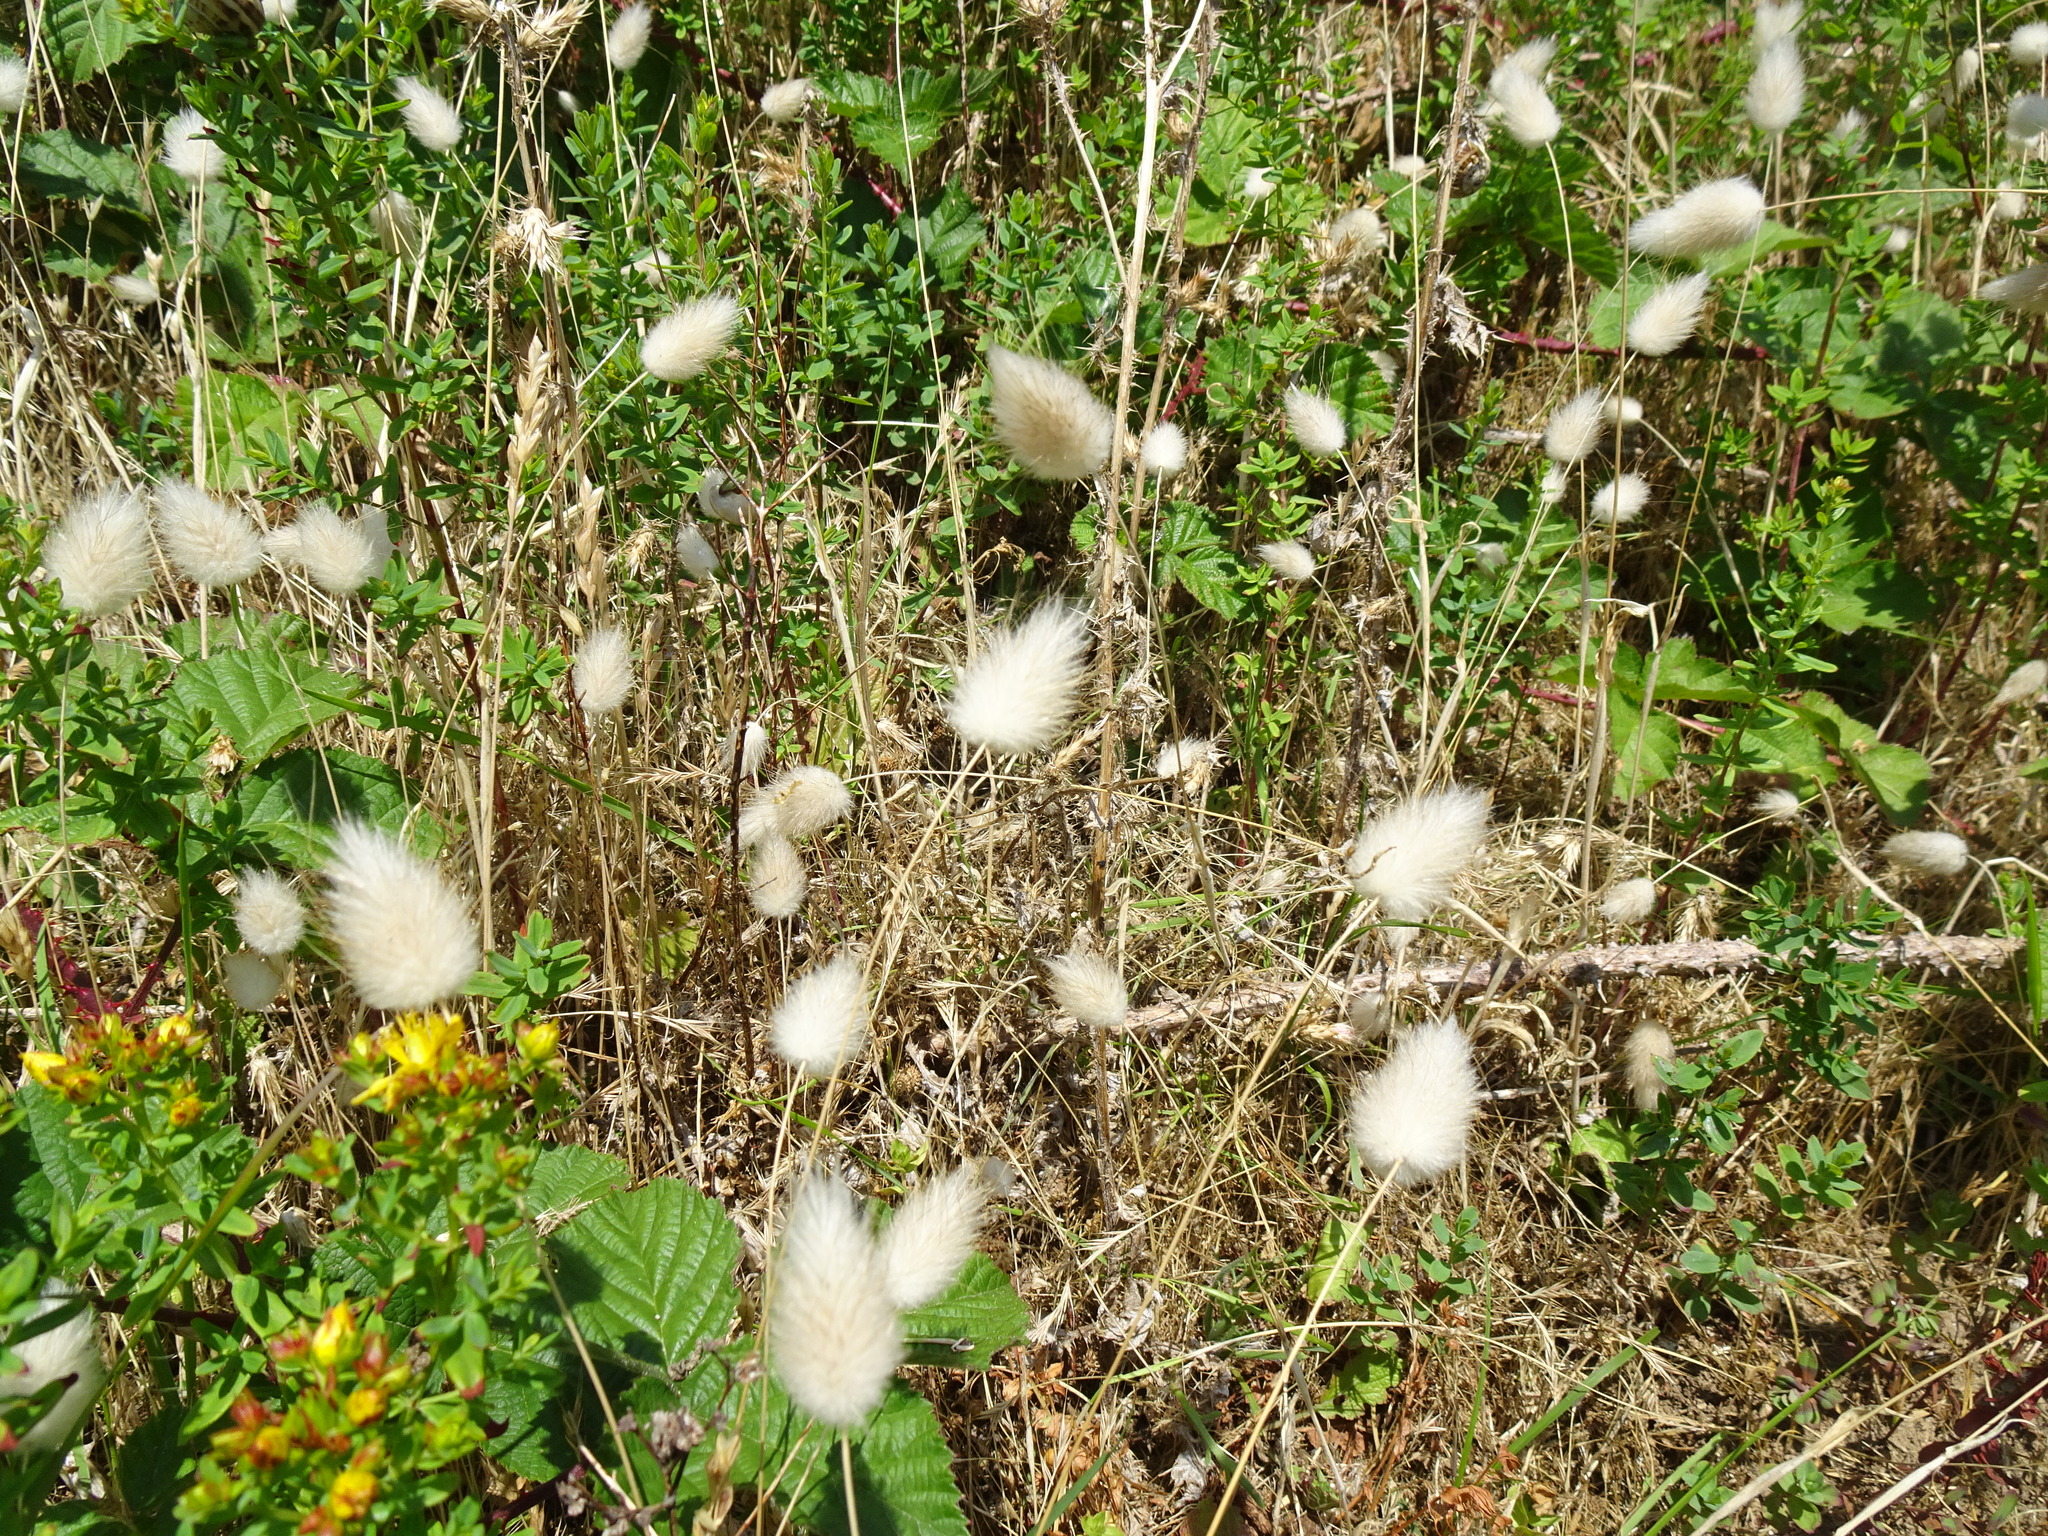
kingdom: Plantae
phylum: Tracheophyta
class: Liliopsida
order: Poales
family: Poaceae
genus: Lagurus
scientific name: Lagurus ovatus
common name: Hare's-tail
